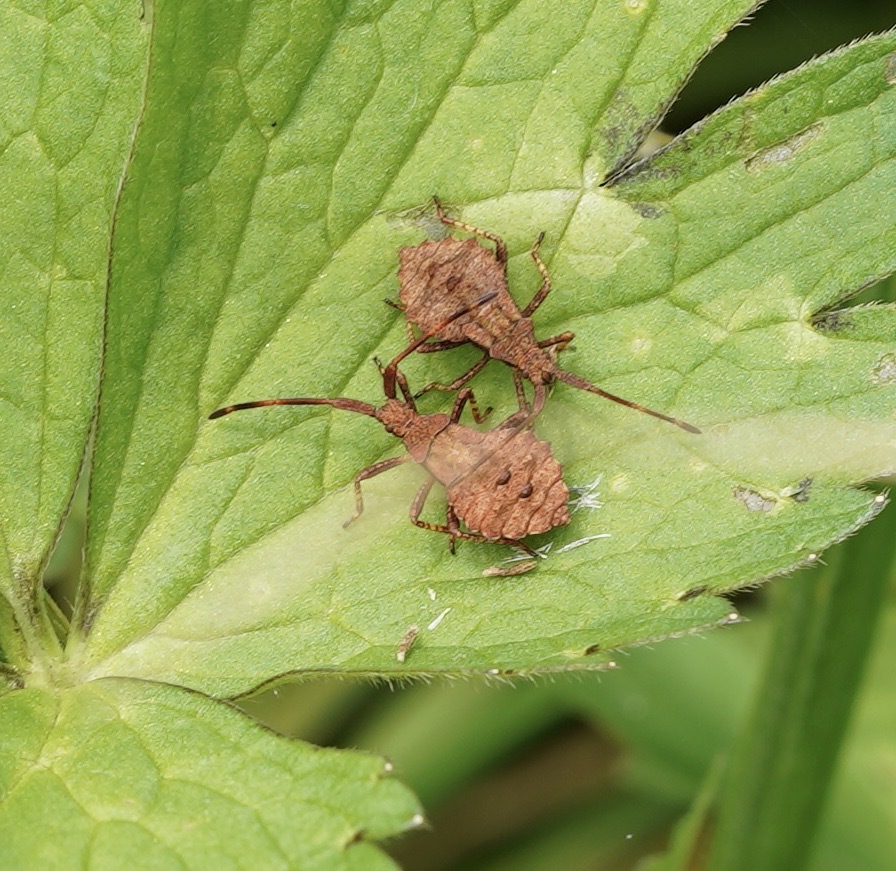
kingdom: Animalia
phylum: Arthropoda
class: Insecta
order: Hemiptera
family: Coreidae
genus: Coreus
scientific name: Coreus marginatus
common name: Dock bug
